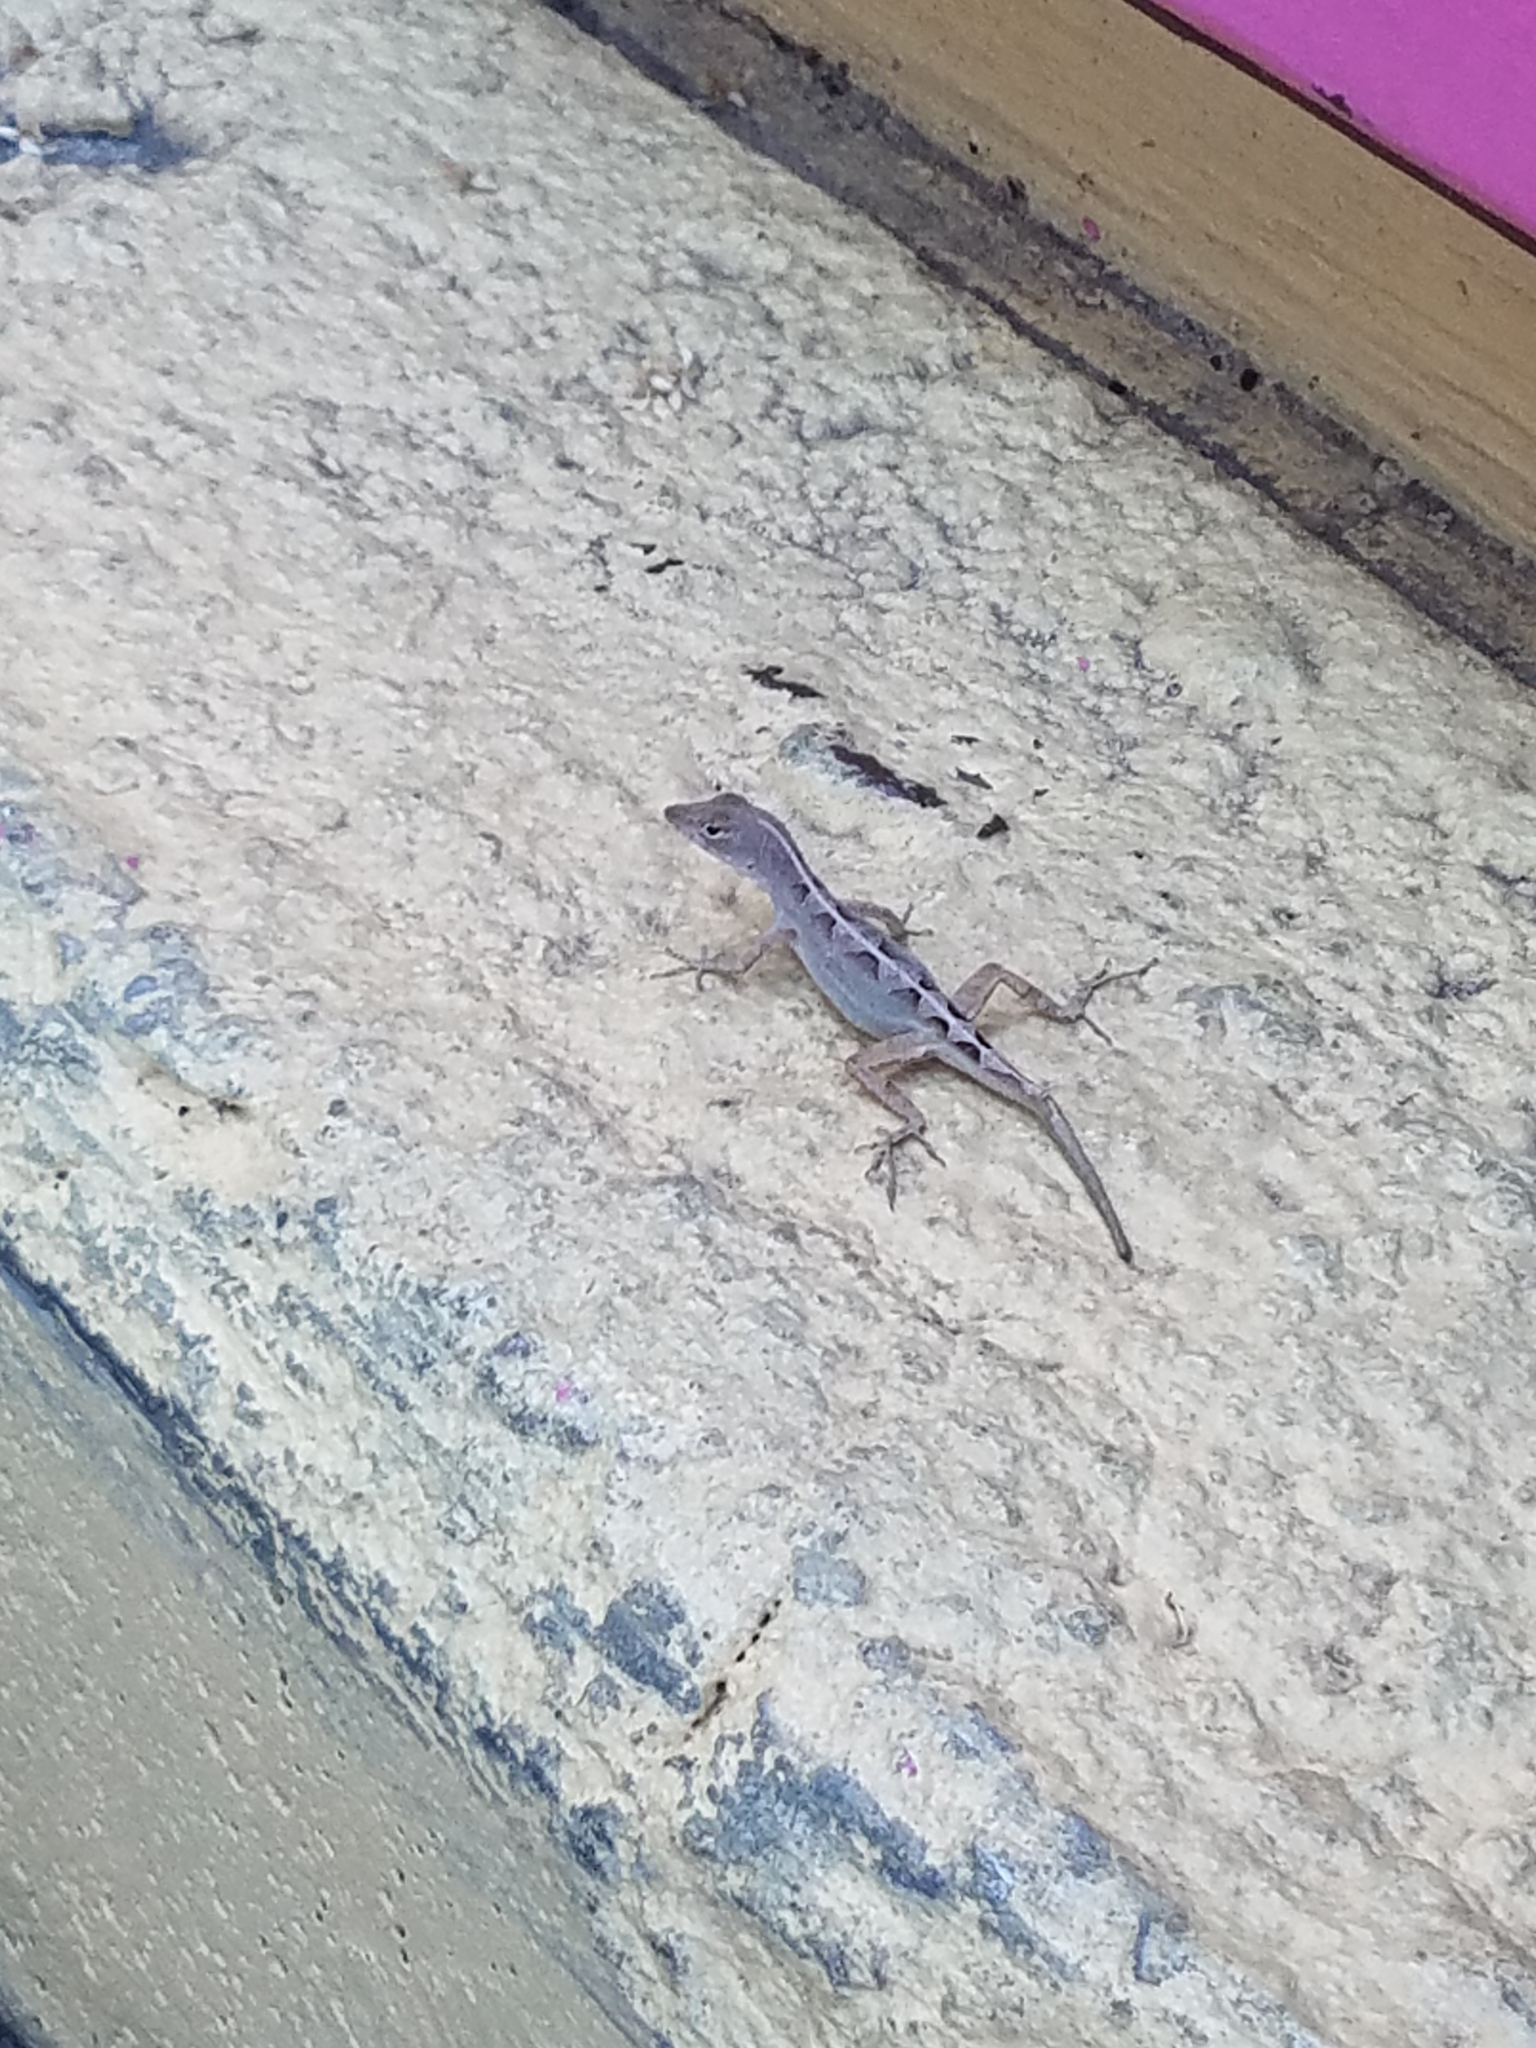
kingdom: Animalia
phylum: Chordata
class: Squamata
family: Dactyloidae
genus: Anolis
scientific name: Anolis sagrei
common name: Brown anole
